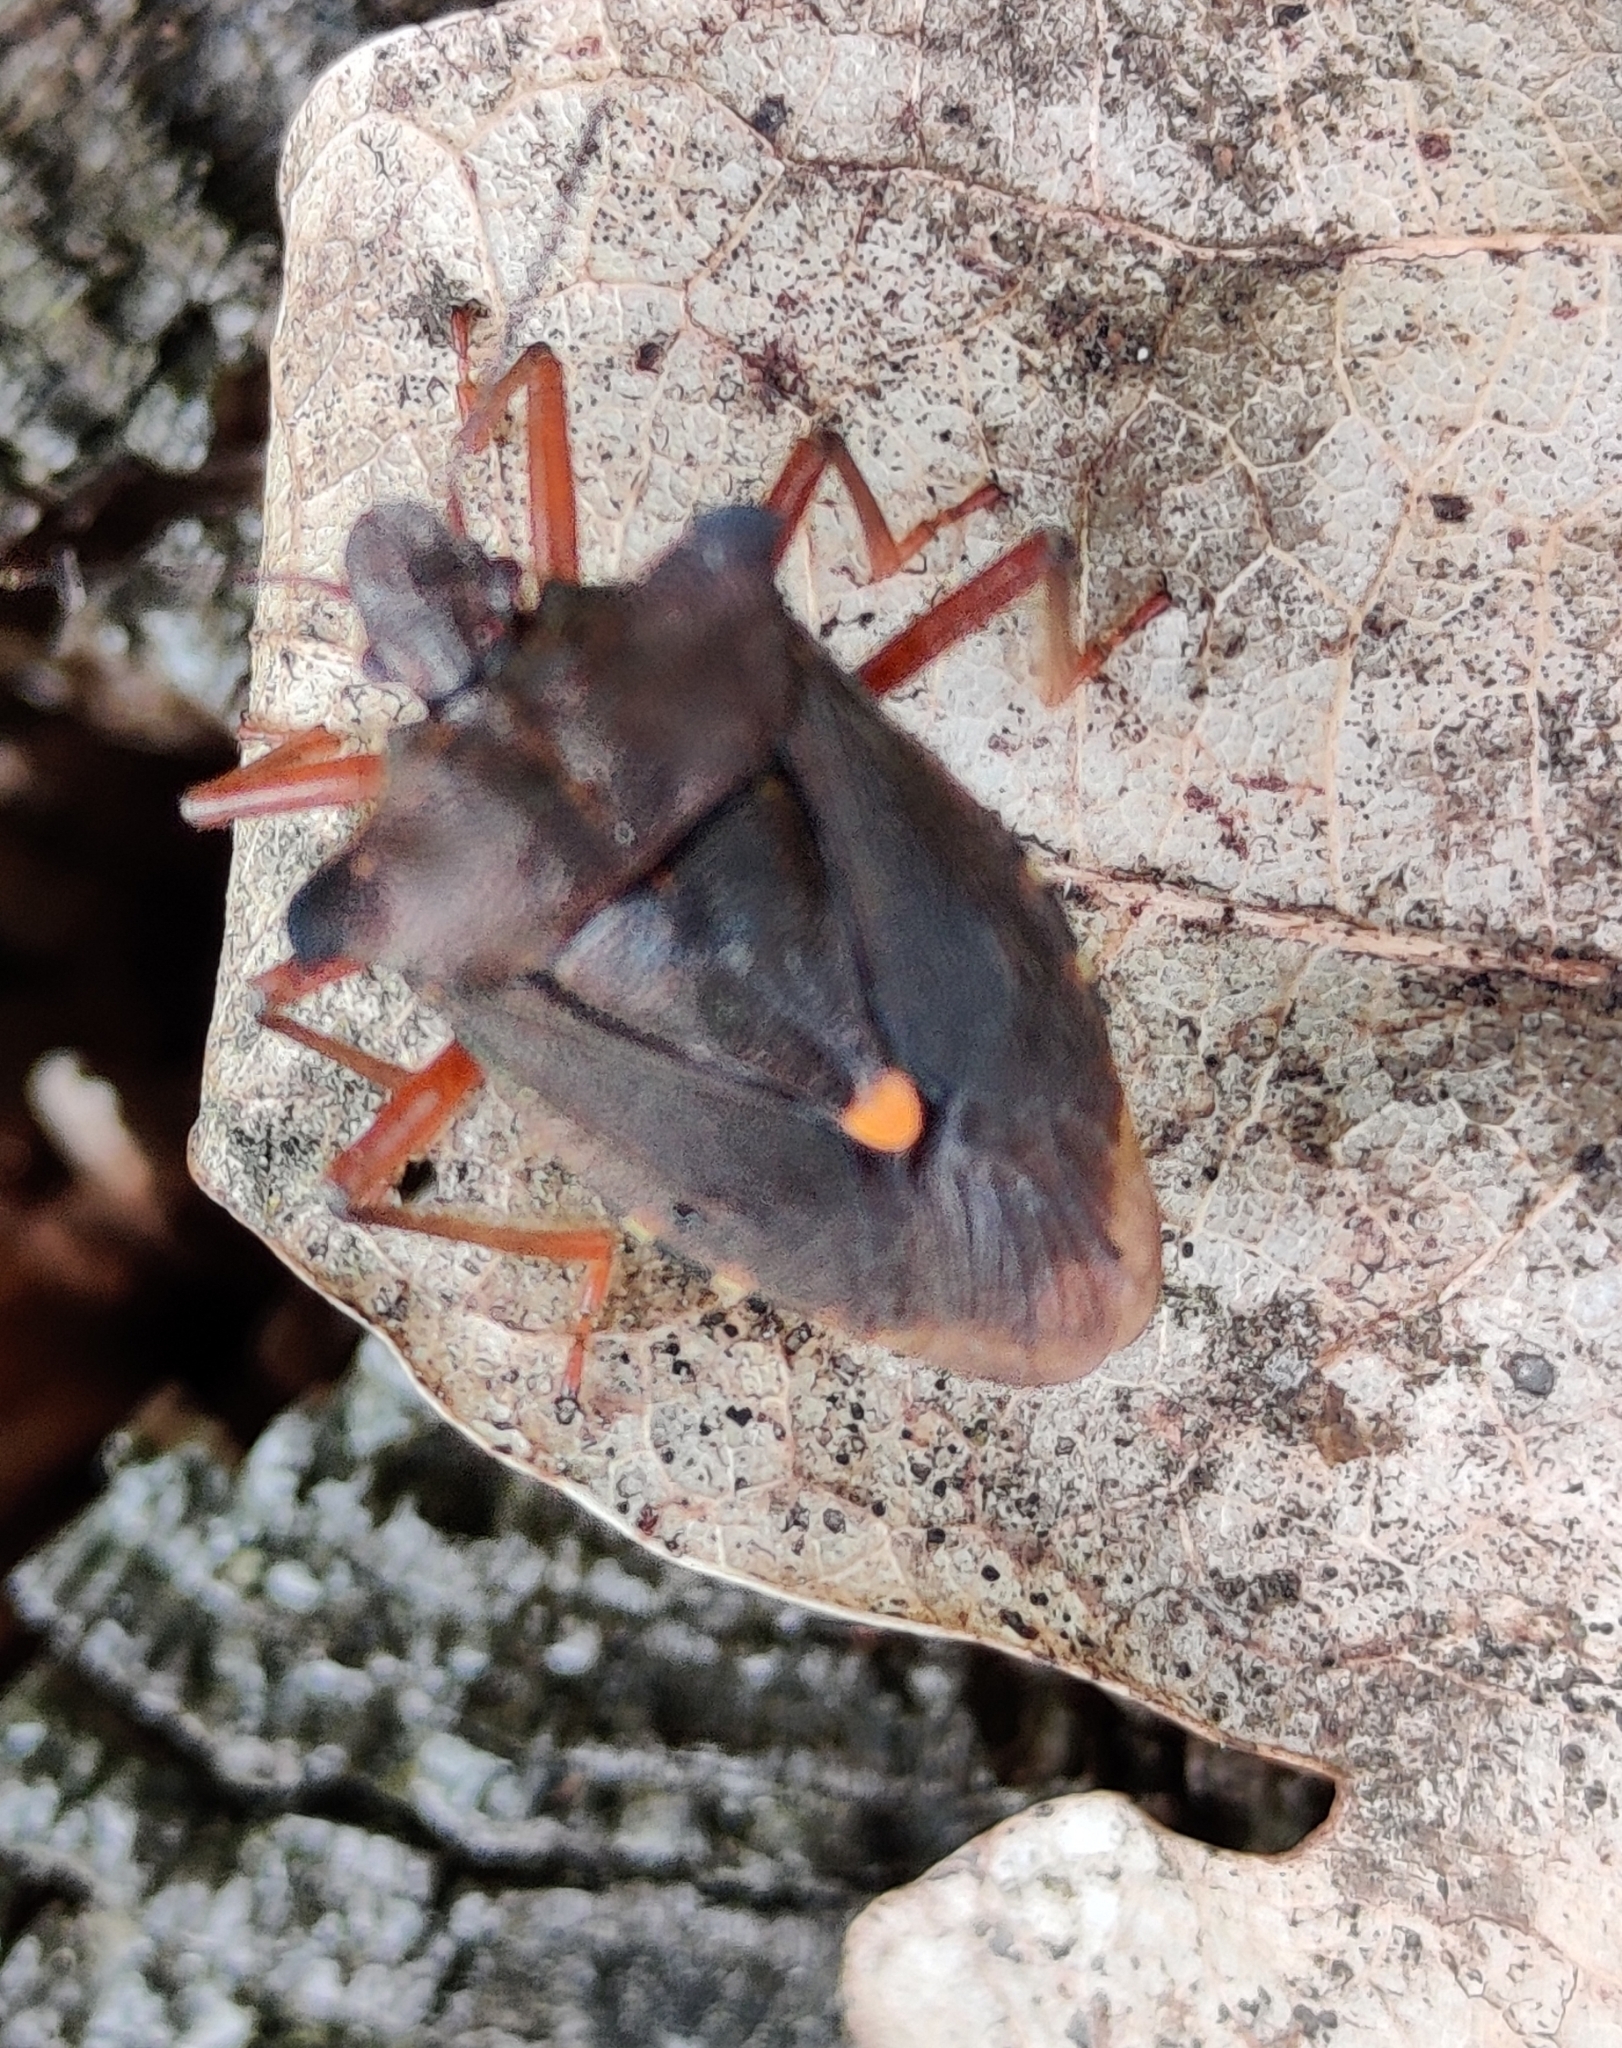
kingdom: Animalia
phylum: Arthropoda
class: Insecta
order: Hemiptera
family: Pentatomidae
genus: Pentatoma
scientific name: Pentatoma rufipes
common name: Forest bug
